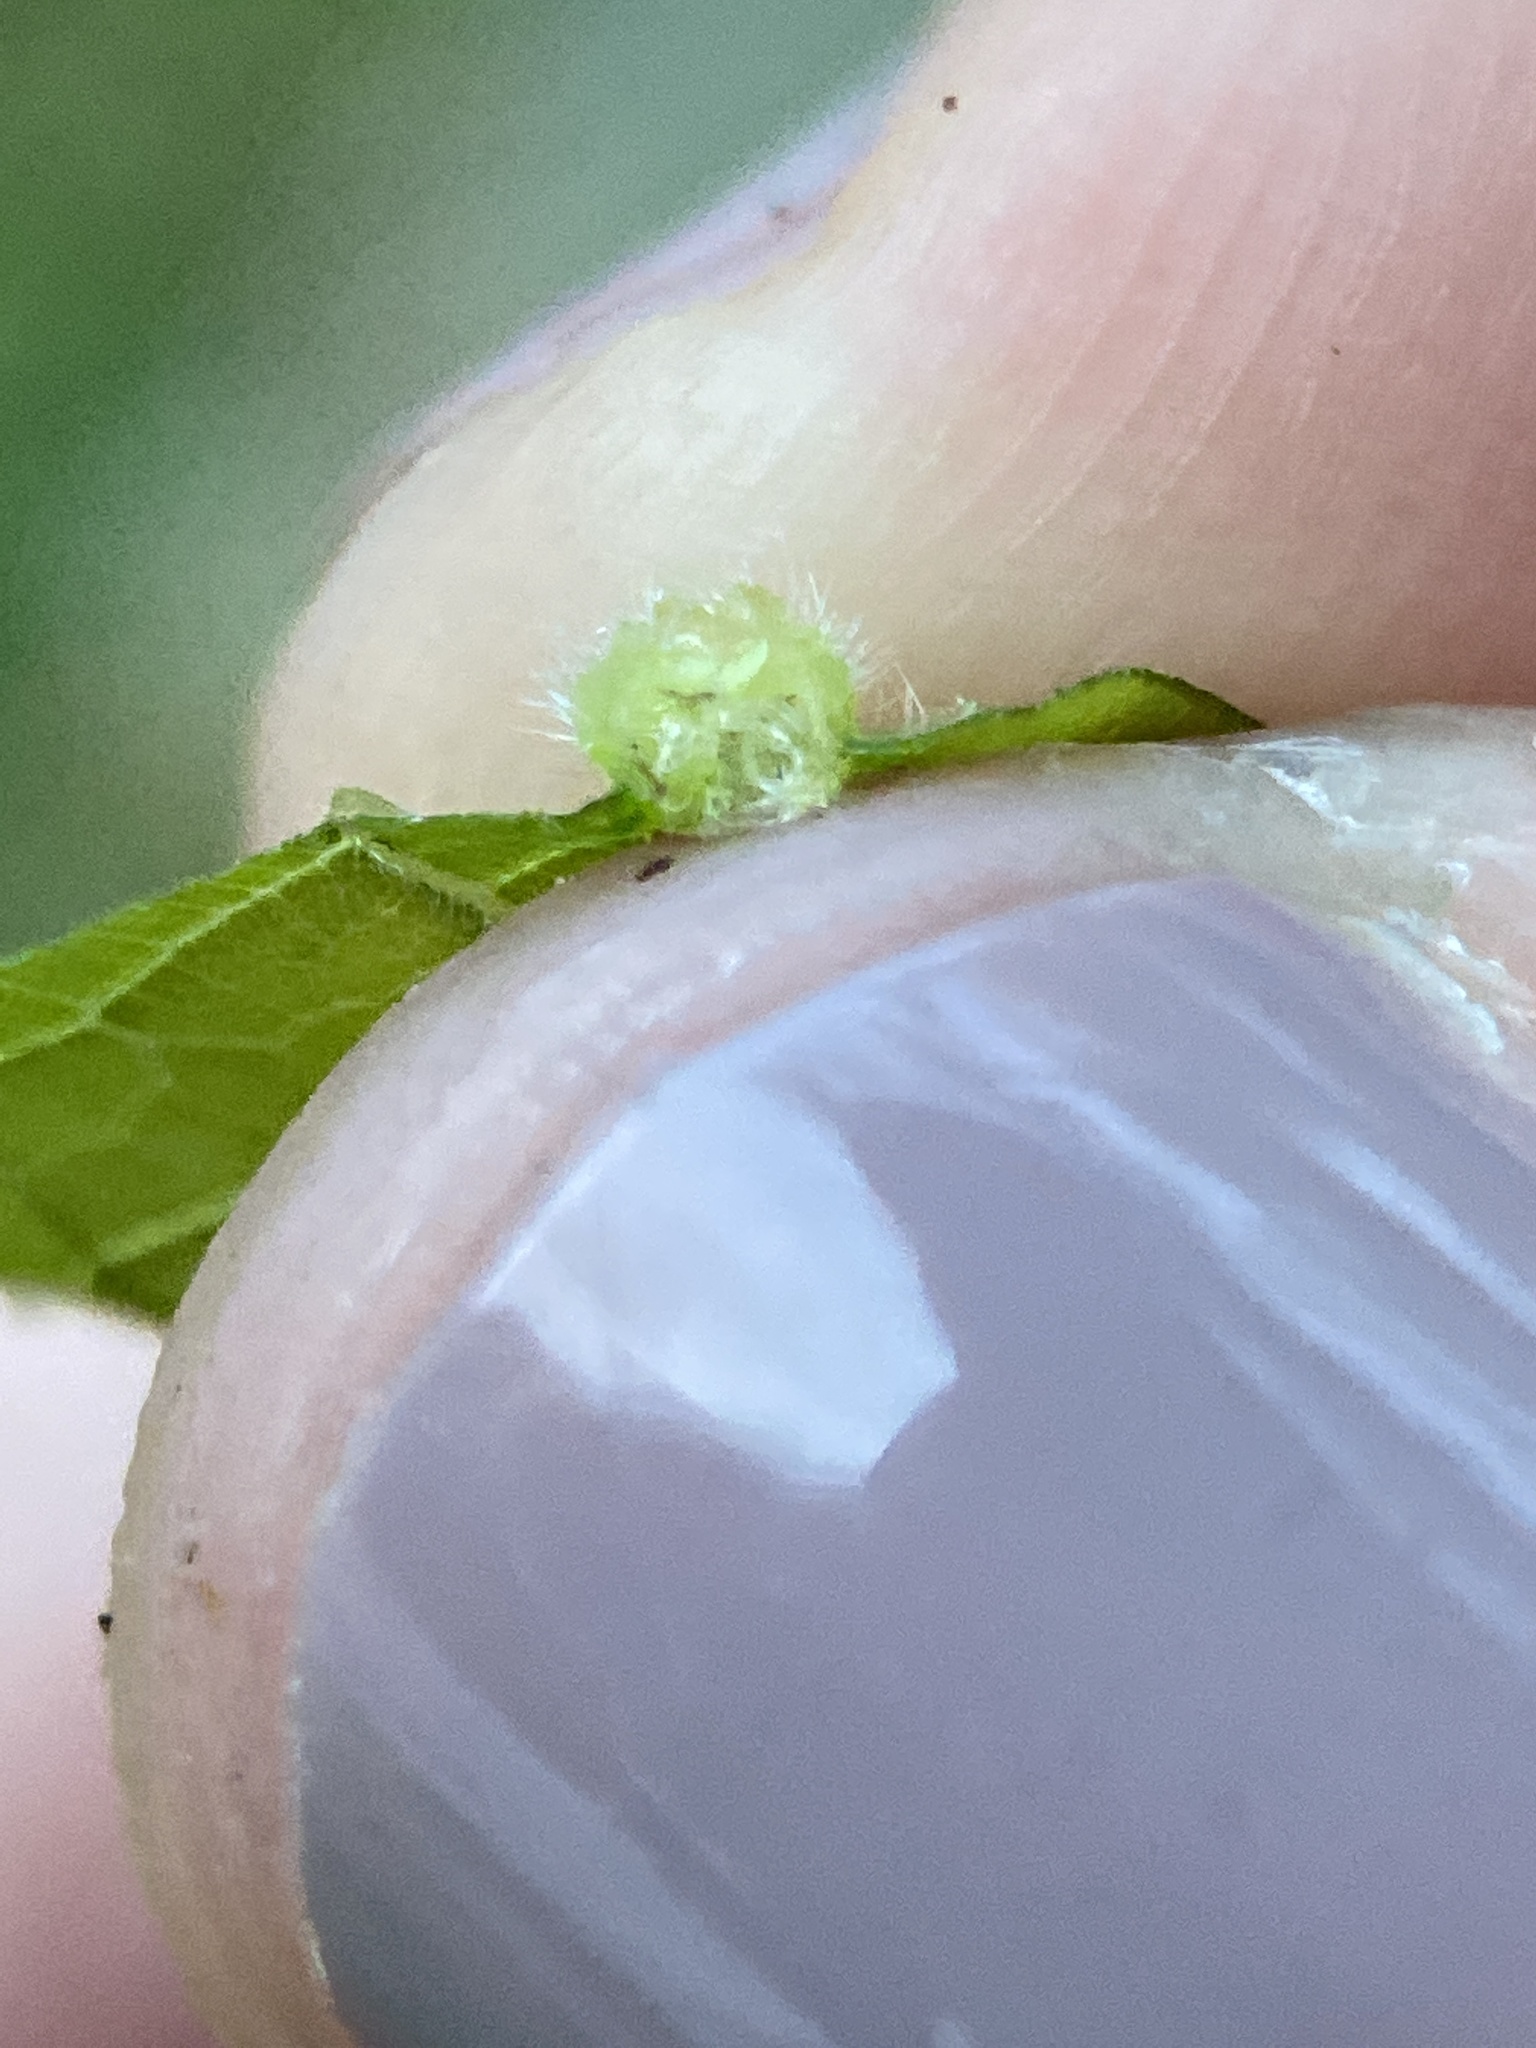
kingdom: Animalia
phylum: Arthropoda
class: Insecta
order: Hemiptera
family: Phylloxeridae
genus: Daktulosphaira
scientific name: Daktulosphaira vitifoliae
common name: Grape phylloxera
